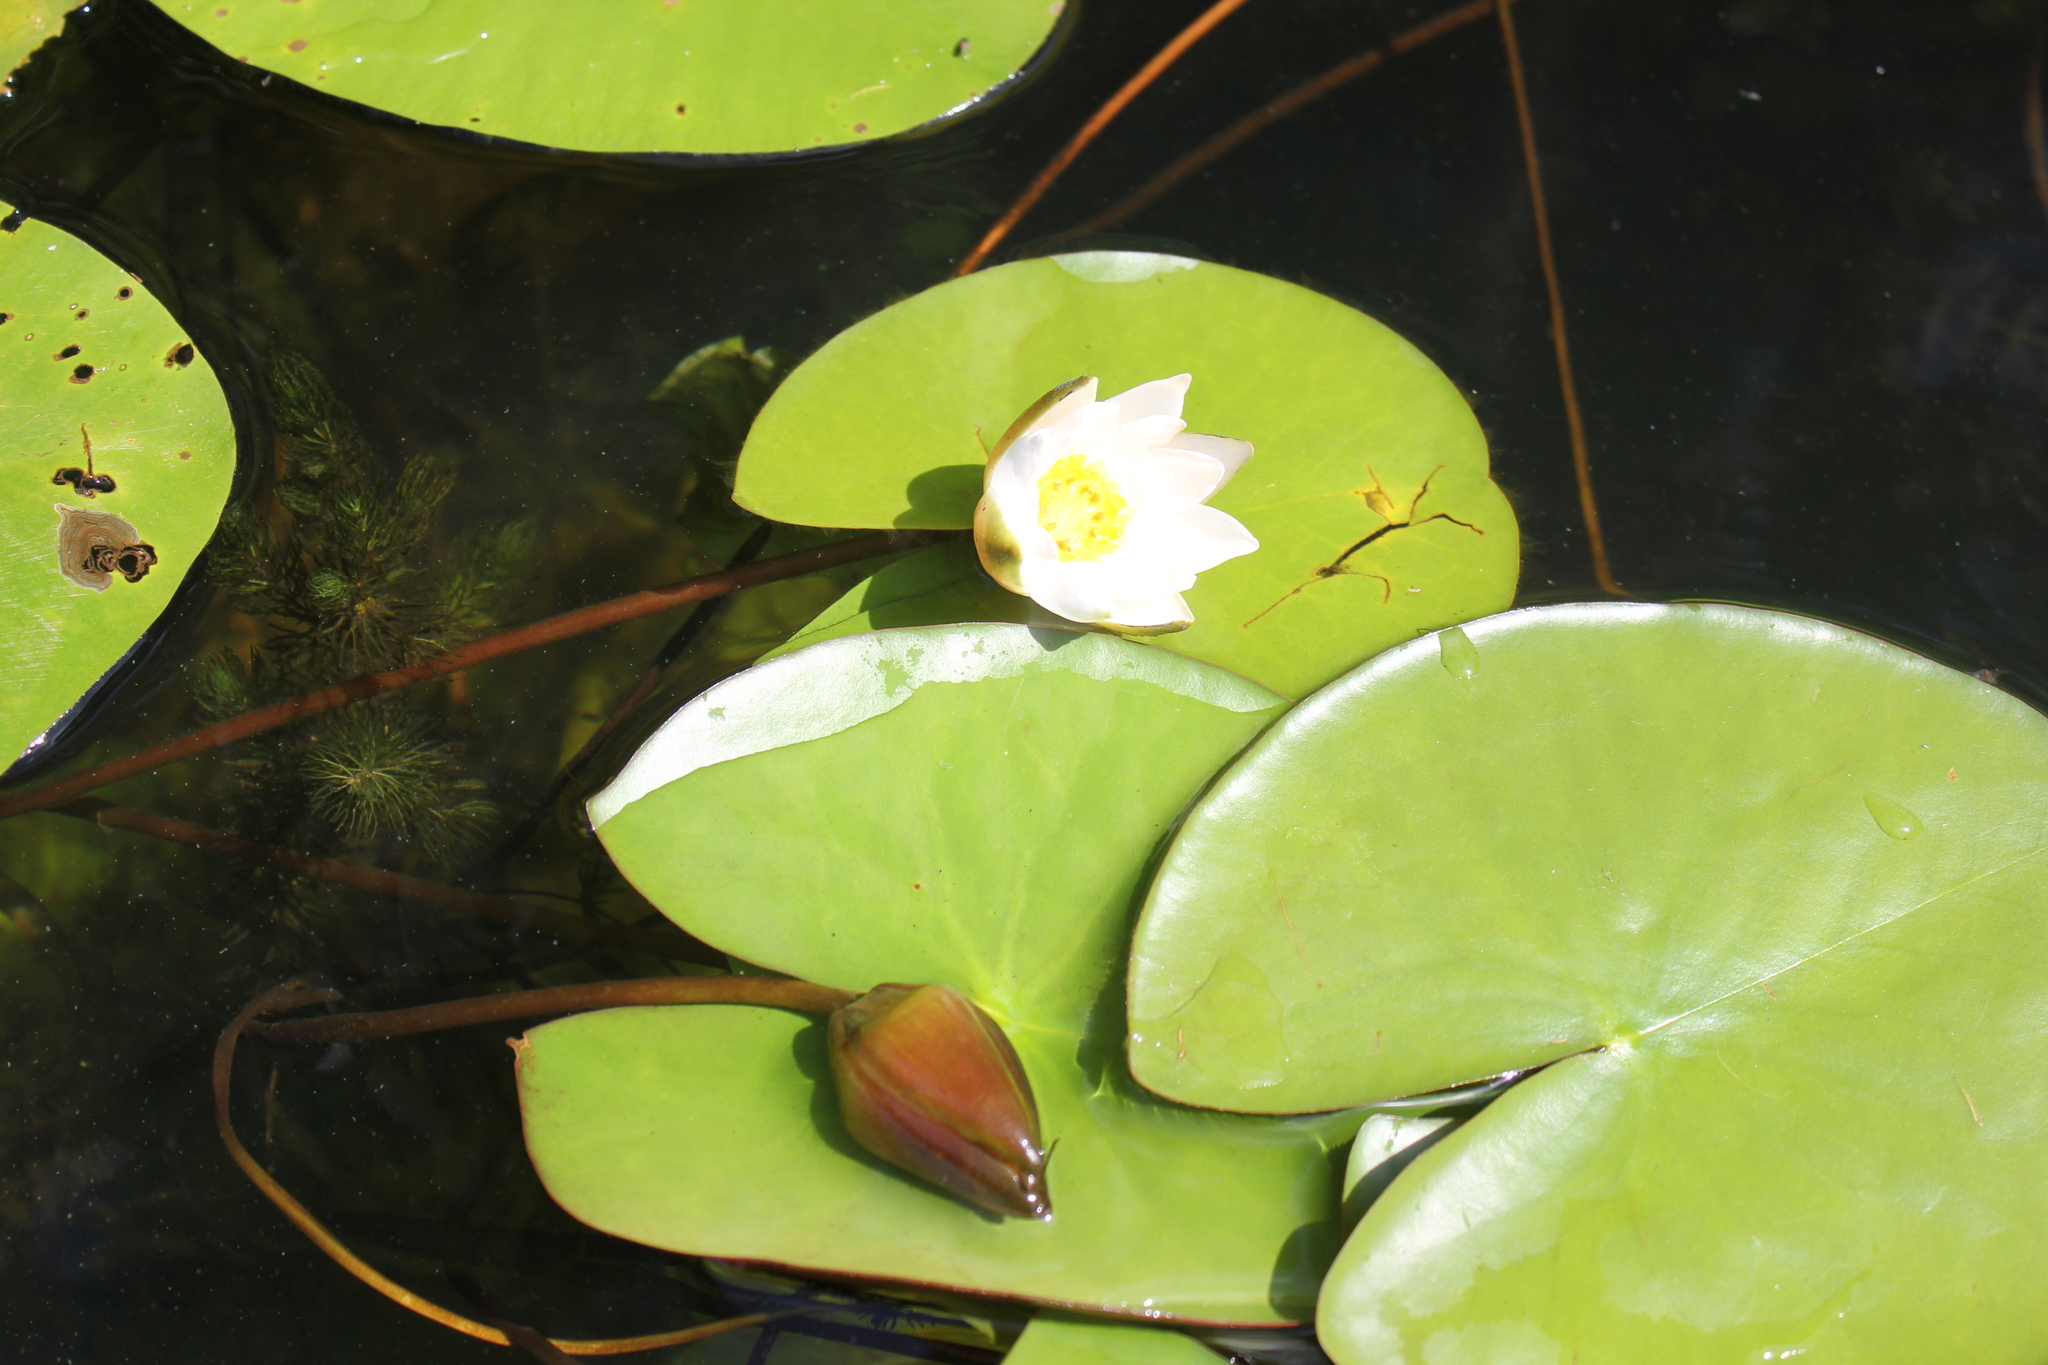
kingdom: Plantae
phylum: Tracheophyta
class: Magnoliopsida
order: Nymphaeales
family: Nymphaeaceae
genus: Nymphaea
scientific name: Nymphaea candida
